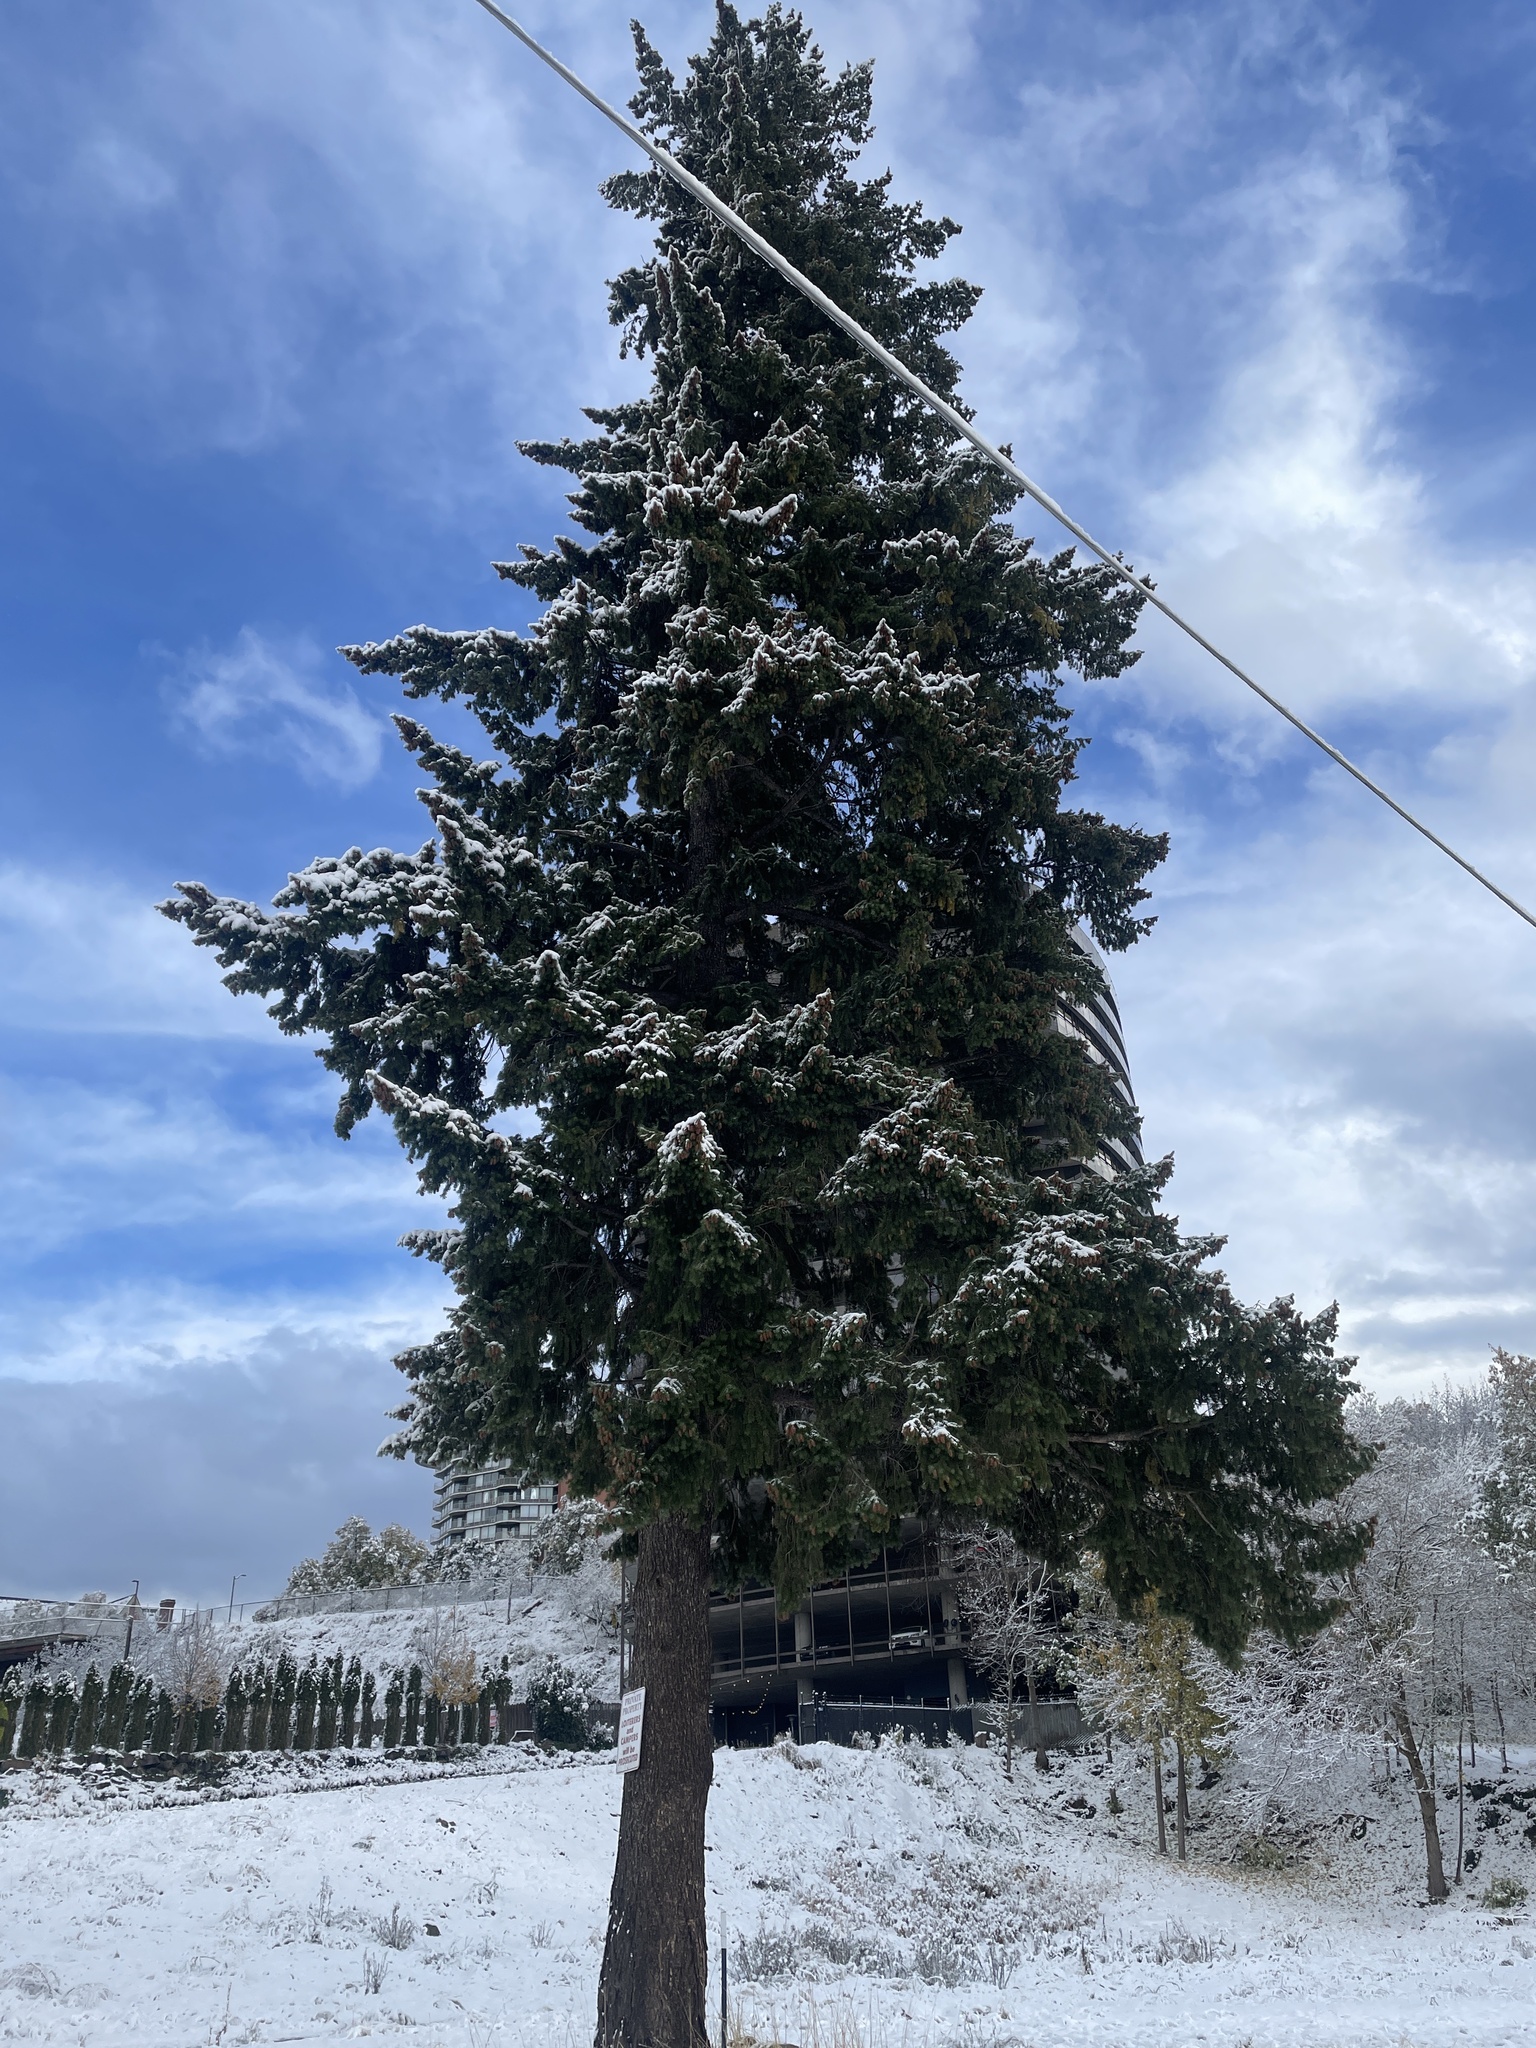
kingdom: Plantae
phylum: Tracheophyta
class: Pinopsida
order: Pinales
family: Pinaceae
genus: Pseudotsuga
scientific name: Pseudotsuga menziesii
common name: Douglas fir
